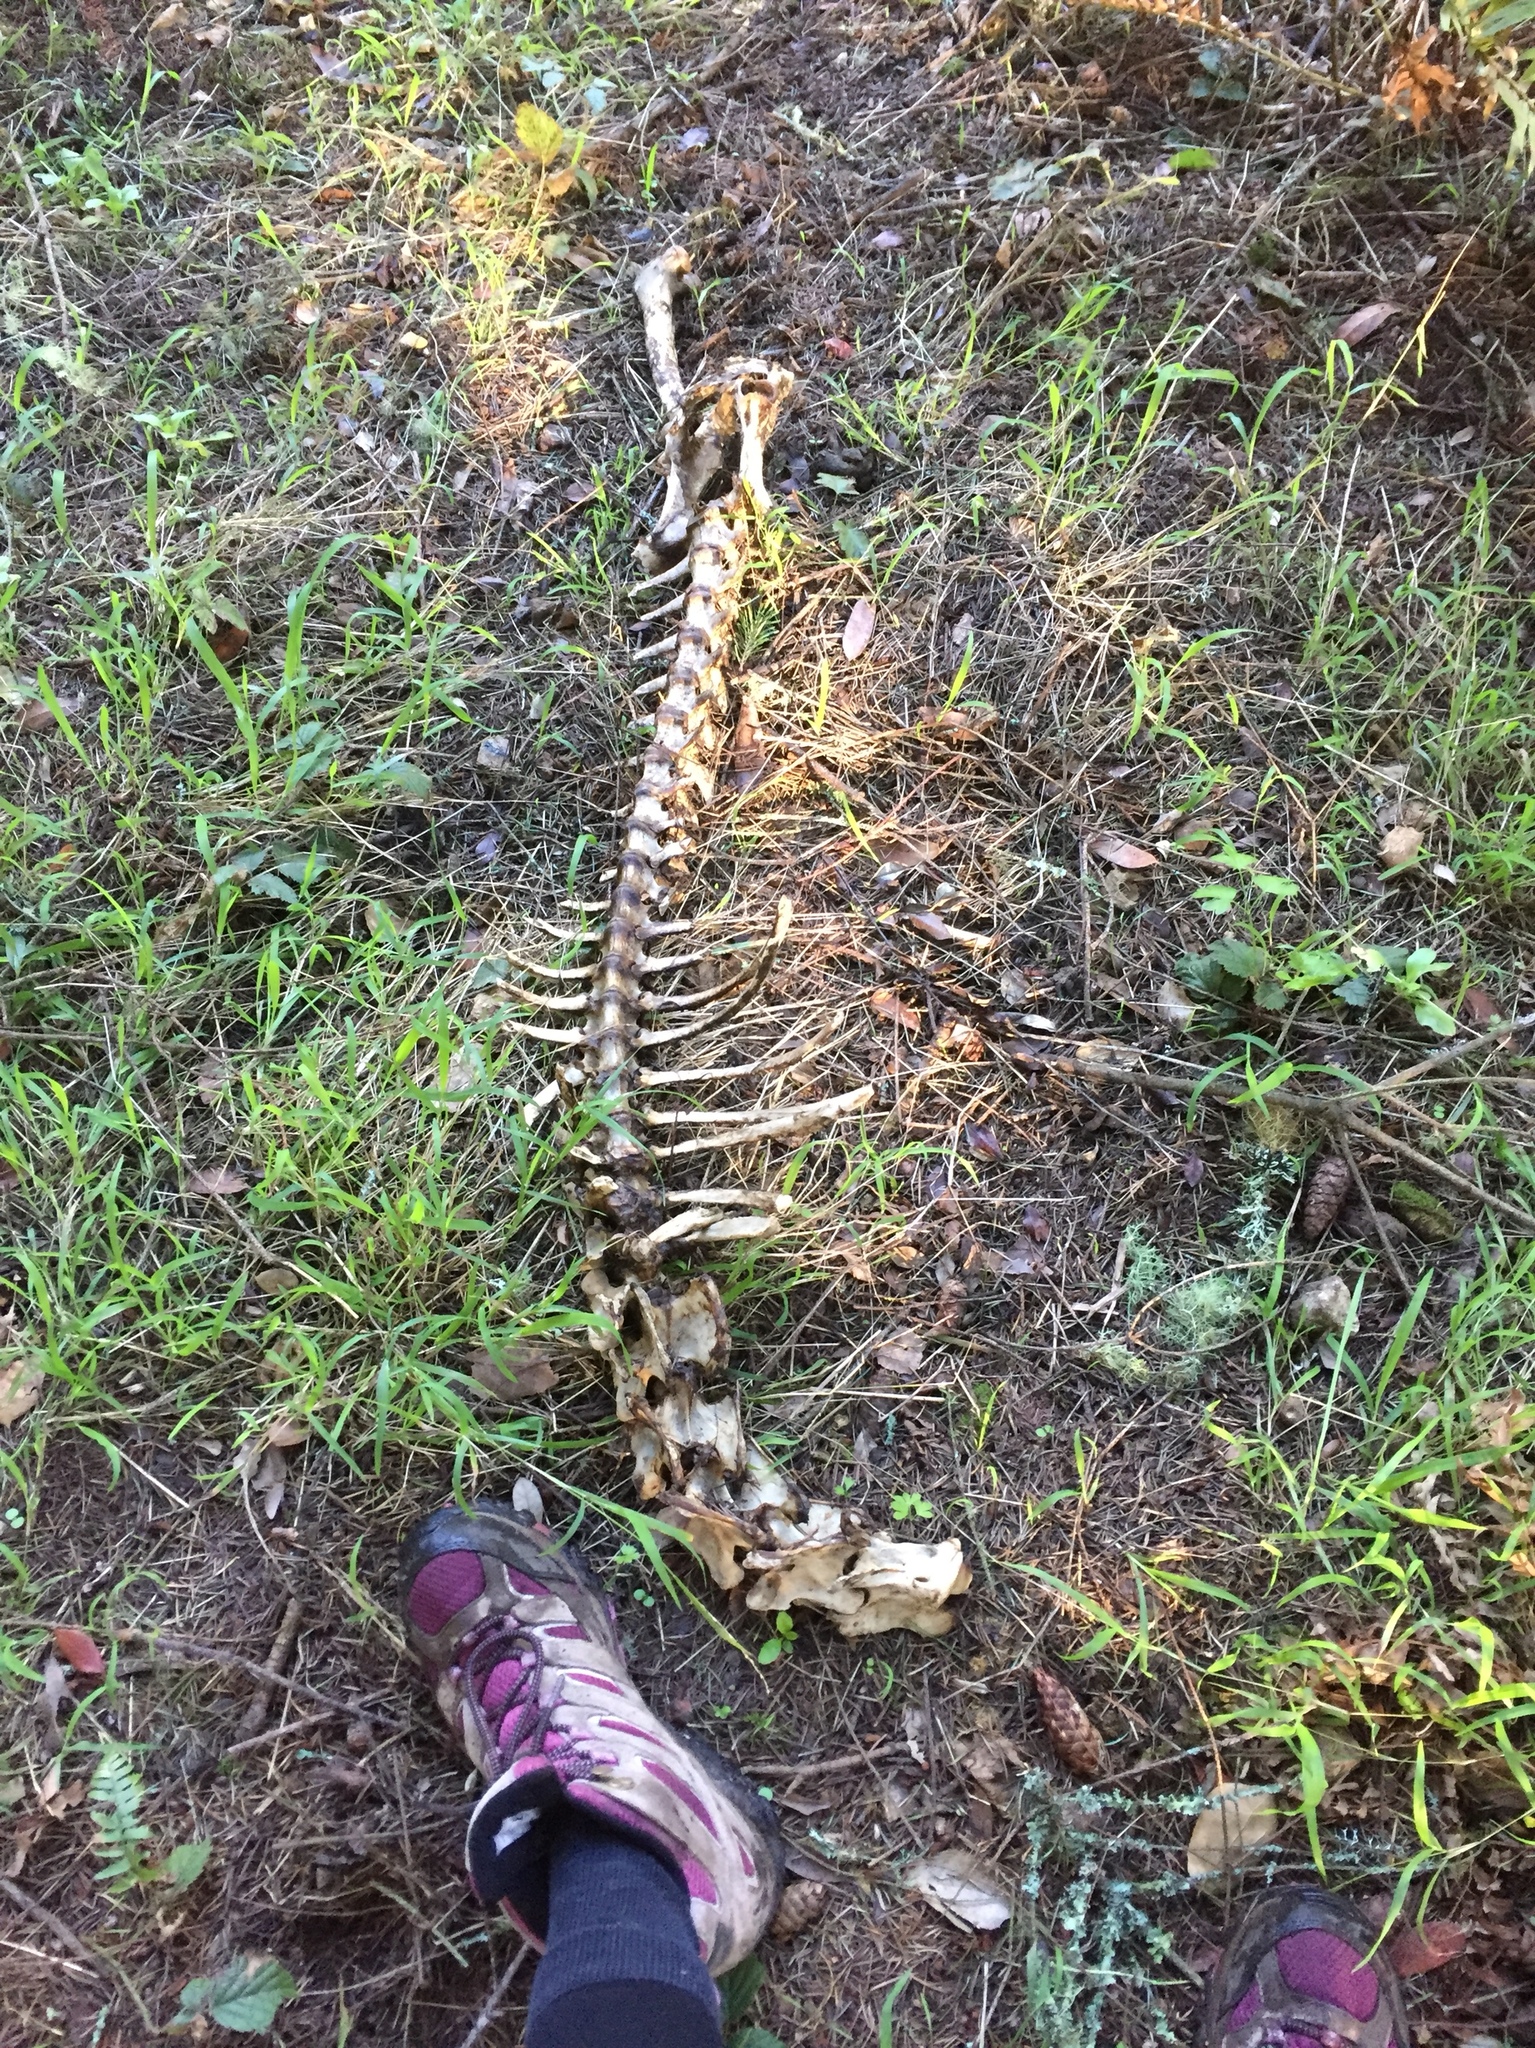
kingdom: Animalia
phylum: Chordata
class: Mammalia
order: Artiodactyla
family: Cervidae
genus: Odocoileus
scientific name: Odocoileus hemionus
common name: Mule deer
